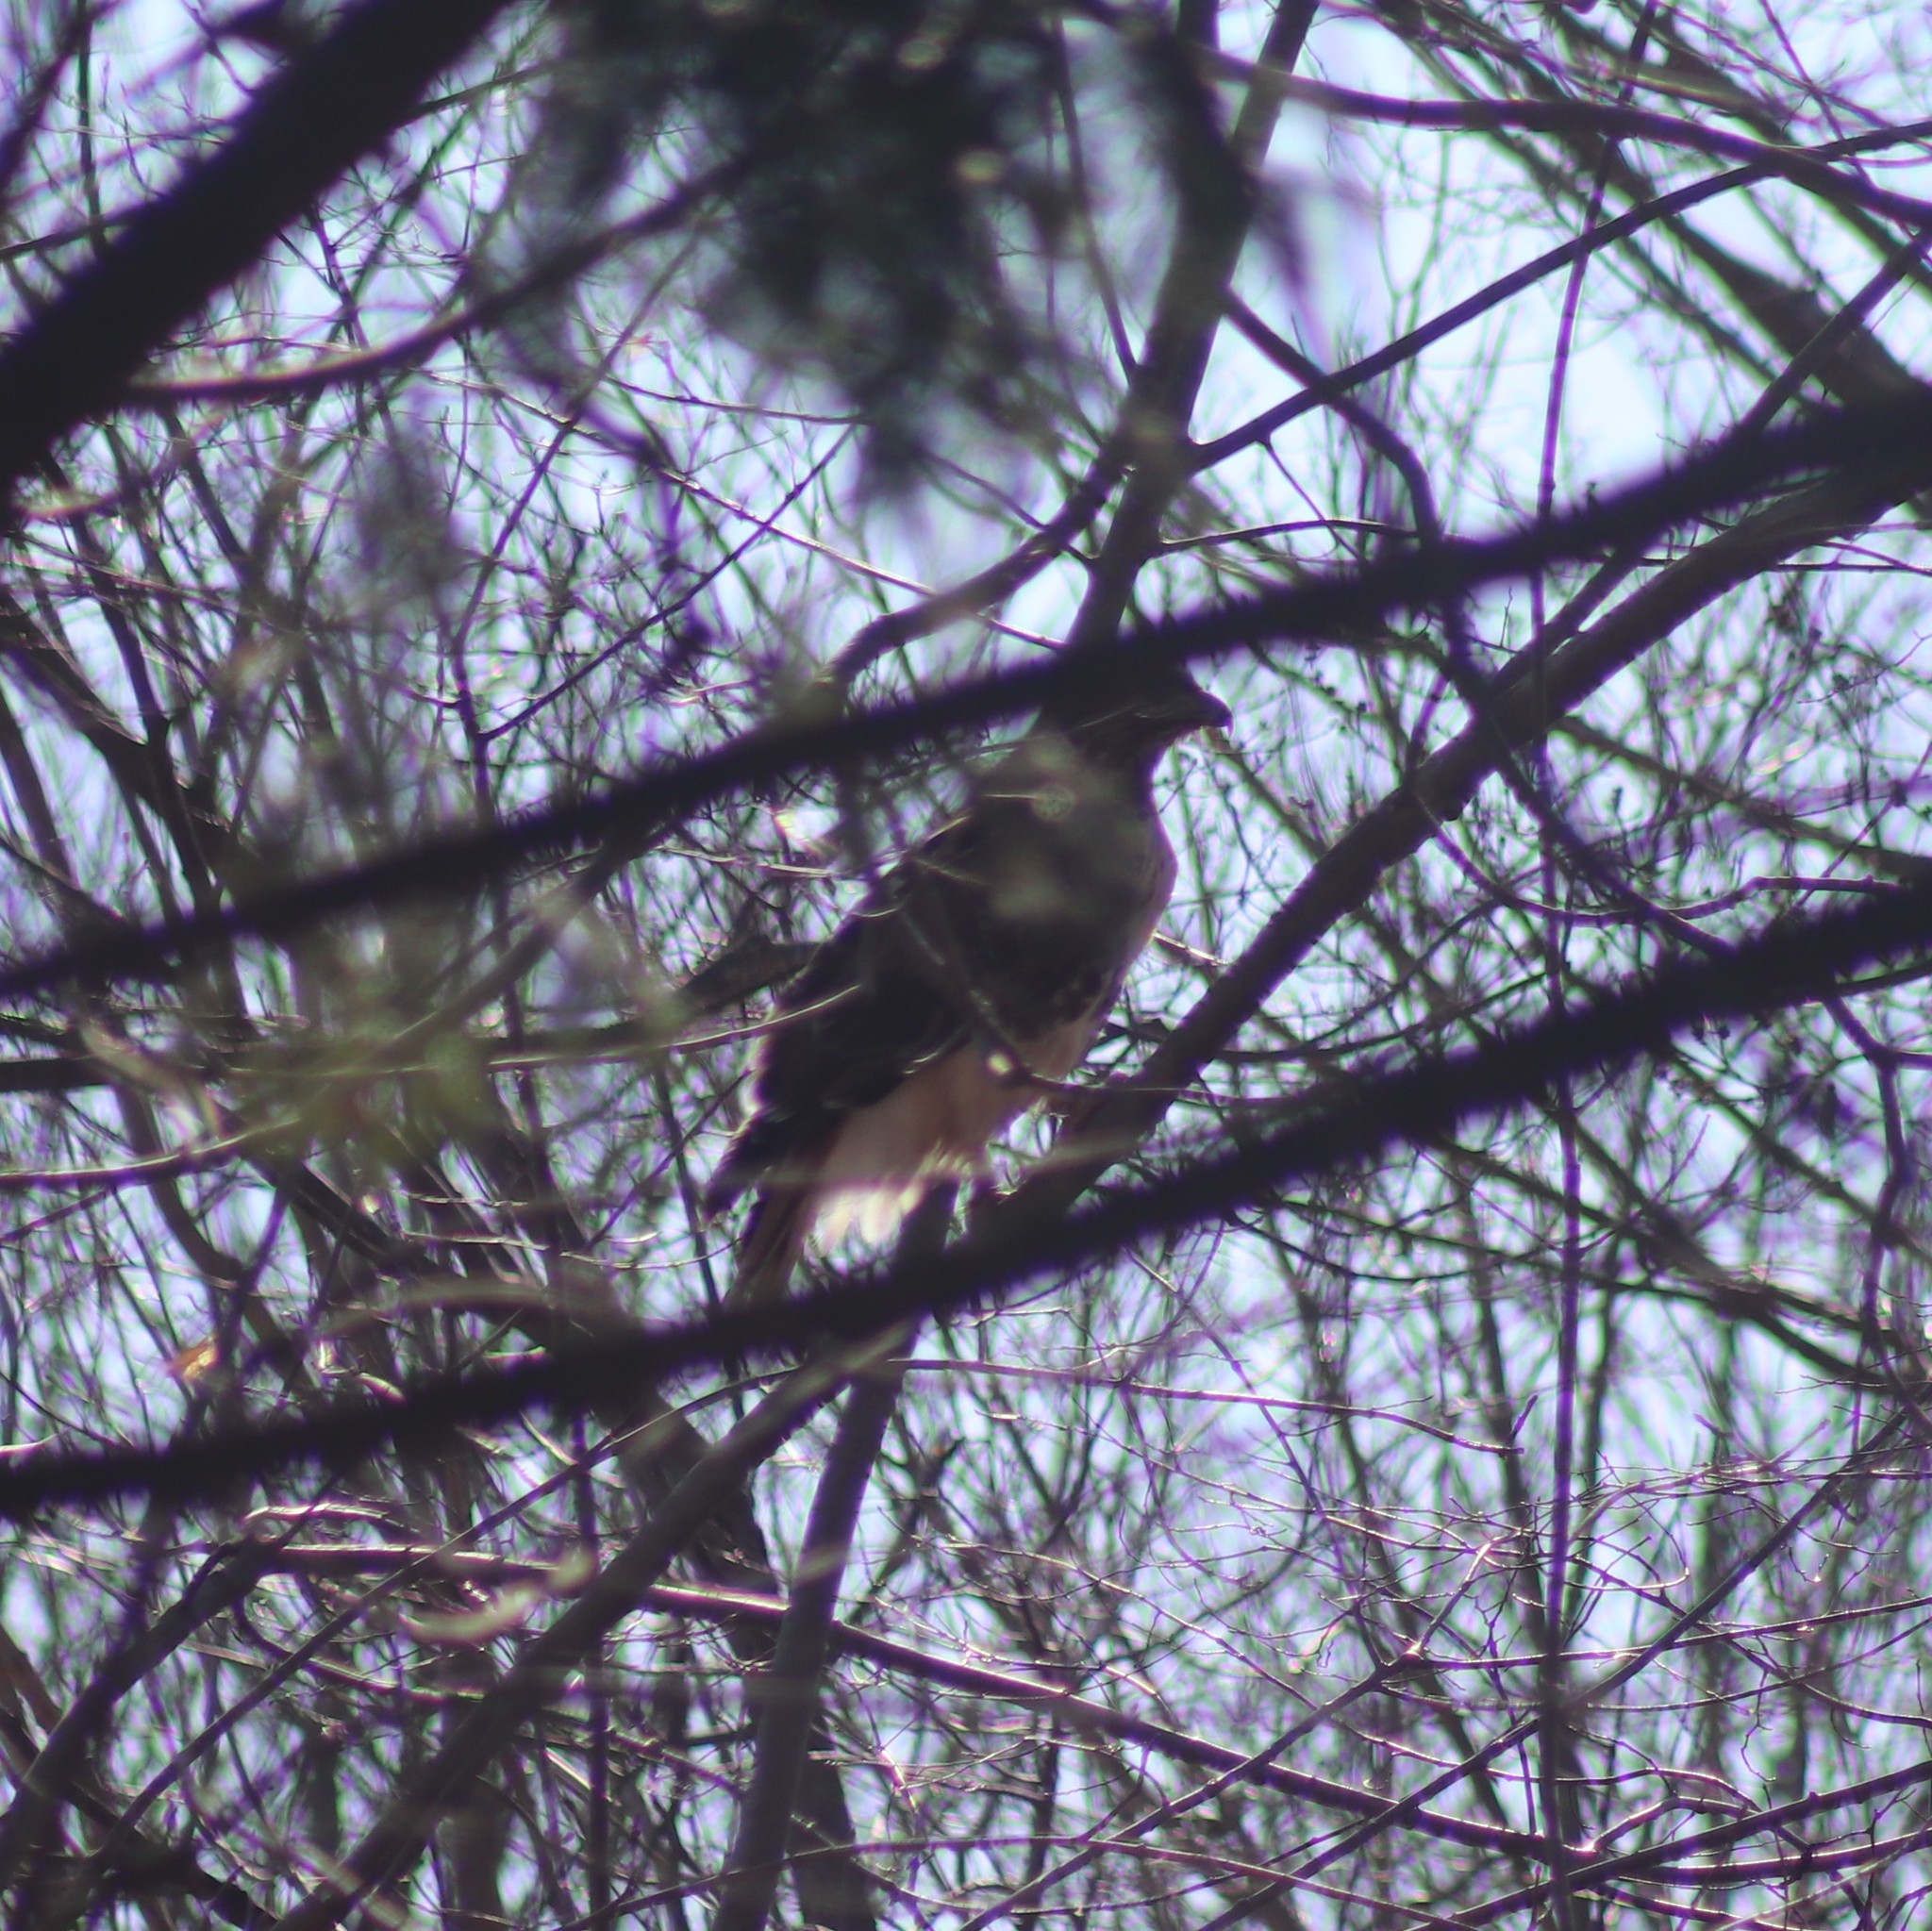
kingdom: Animalia
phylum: Chordata
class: Aves
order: Accipitriformes
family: Accipitridae
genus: Buteo
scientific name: Buteo jamaicensis
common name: Red-tailed hawk
